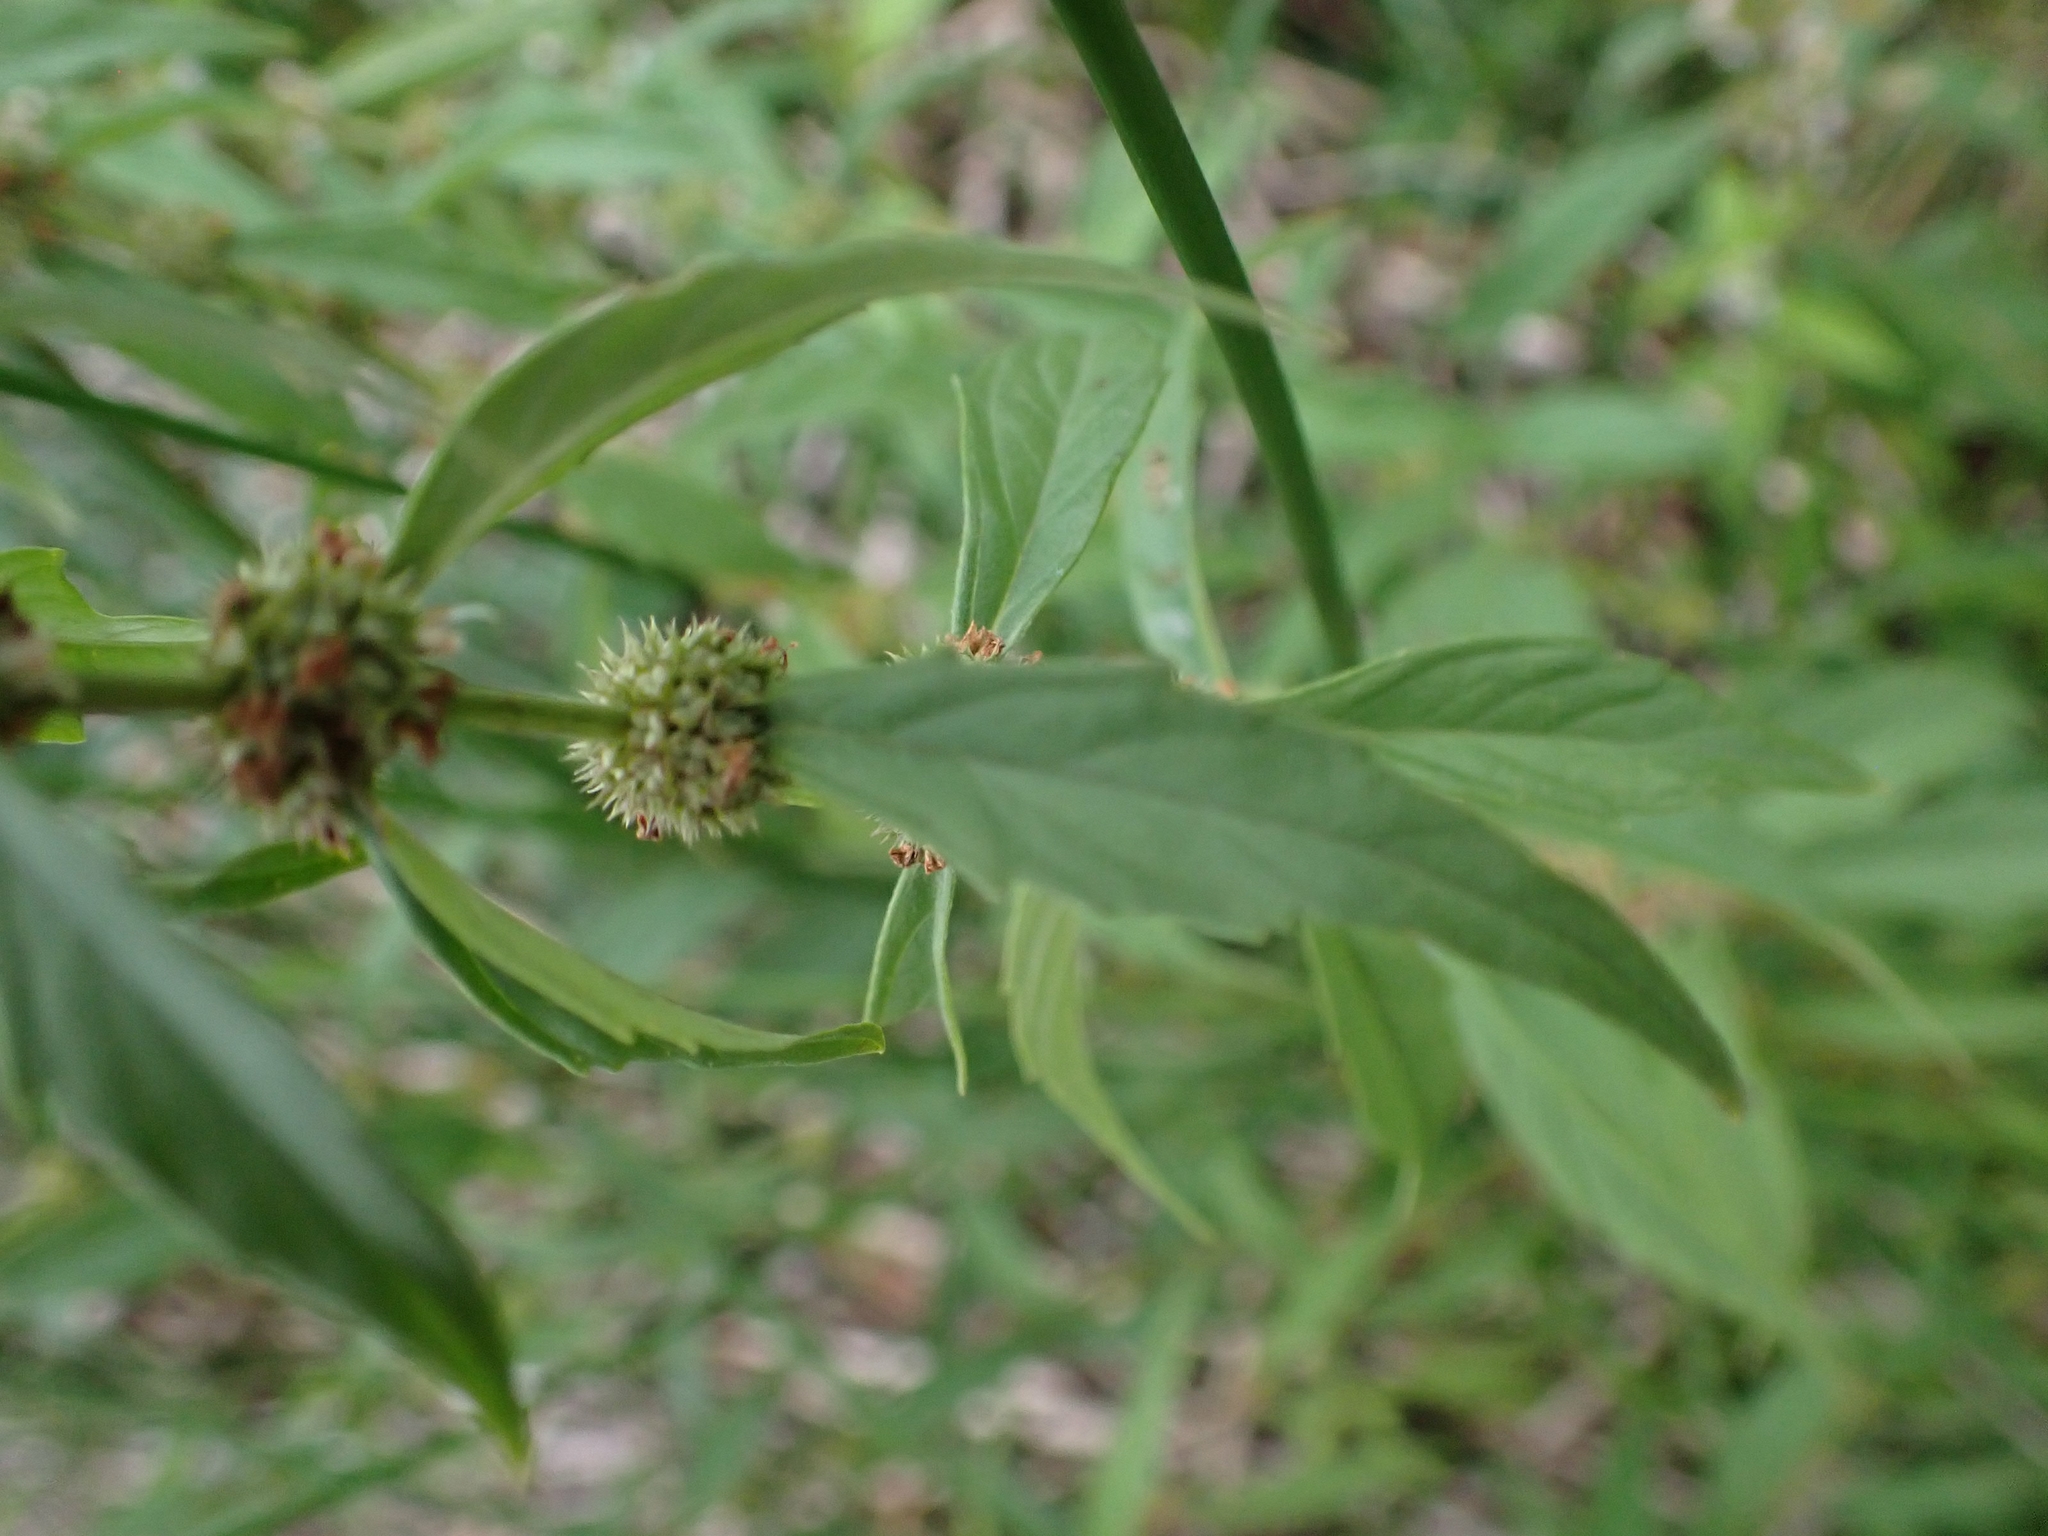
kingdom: Plantae
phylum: Tracheophyta
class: Magnoliopsida
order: Lamiales
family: Lamiaceae
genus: Lycopus
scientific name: Lycopus uniflorus
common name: Northern bugleweed
